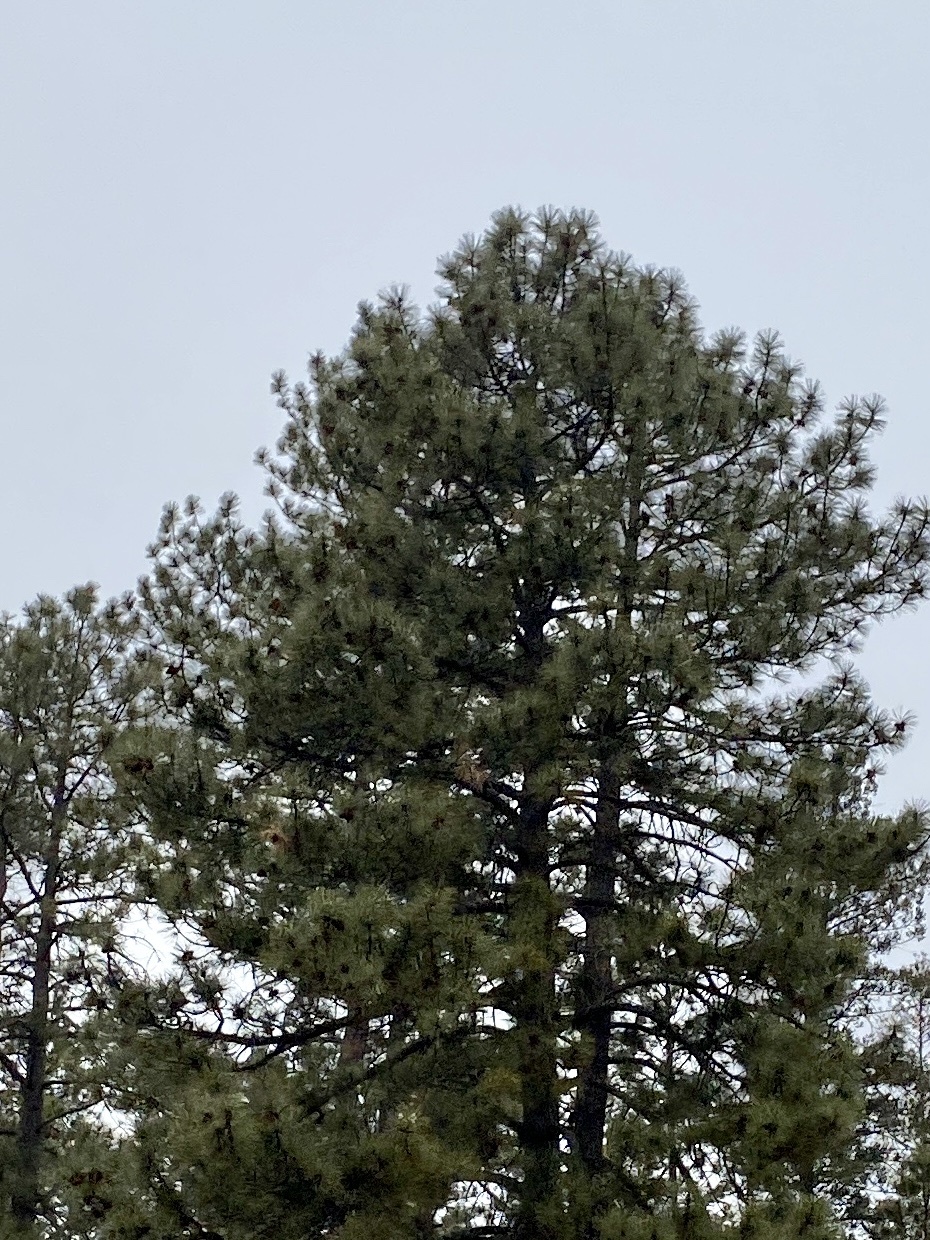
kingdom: Plantae
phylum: Tracheophyta
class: Pinopsida
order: Pinales
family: Pinaceae
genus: Pinus
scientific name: Pinus ponderosa
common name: Western yellow-pine
